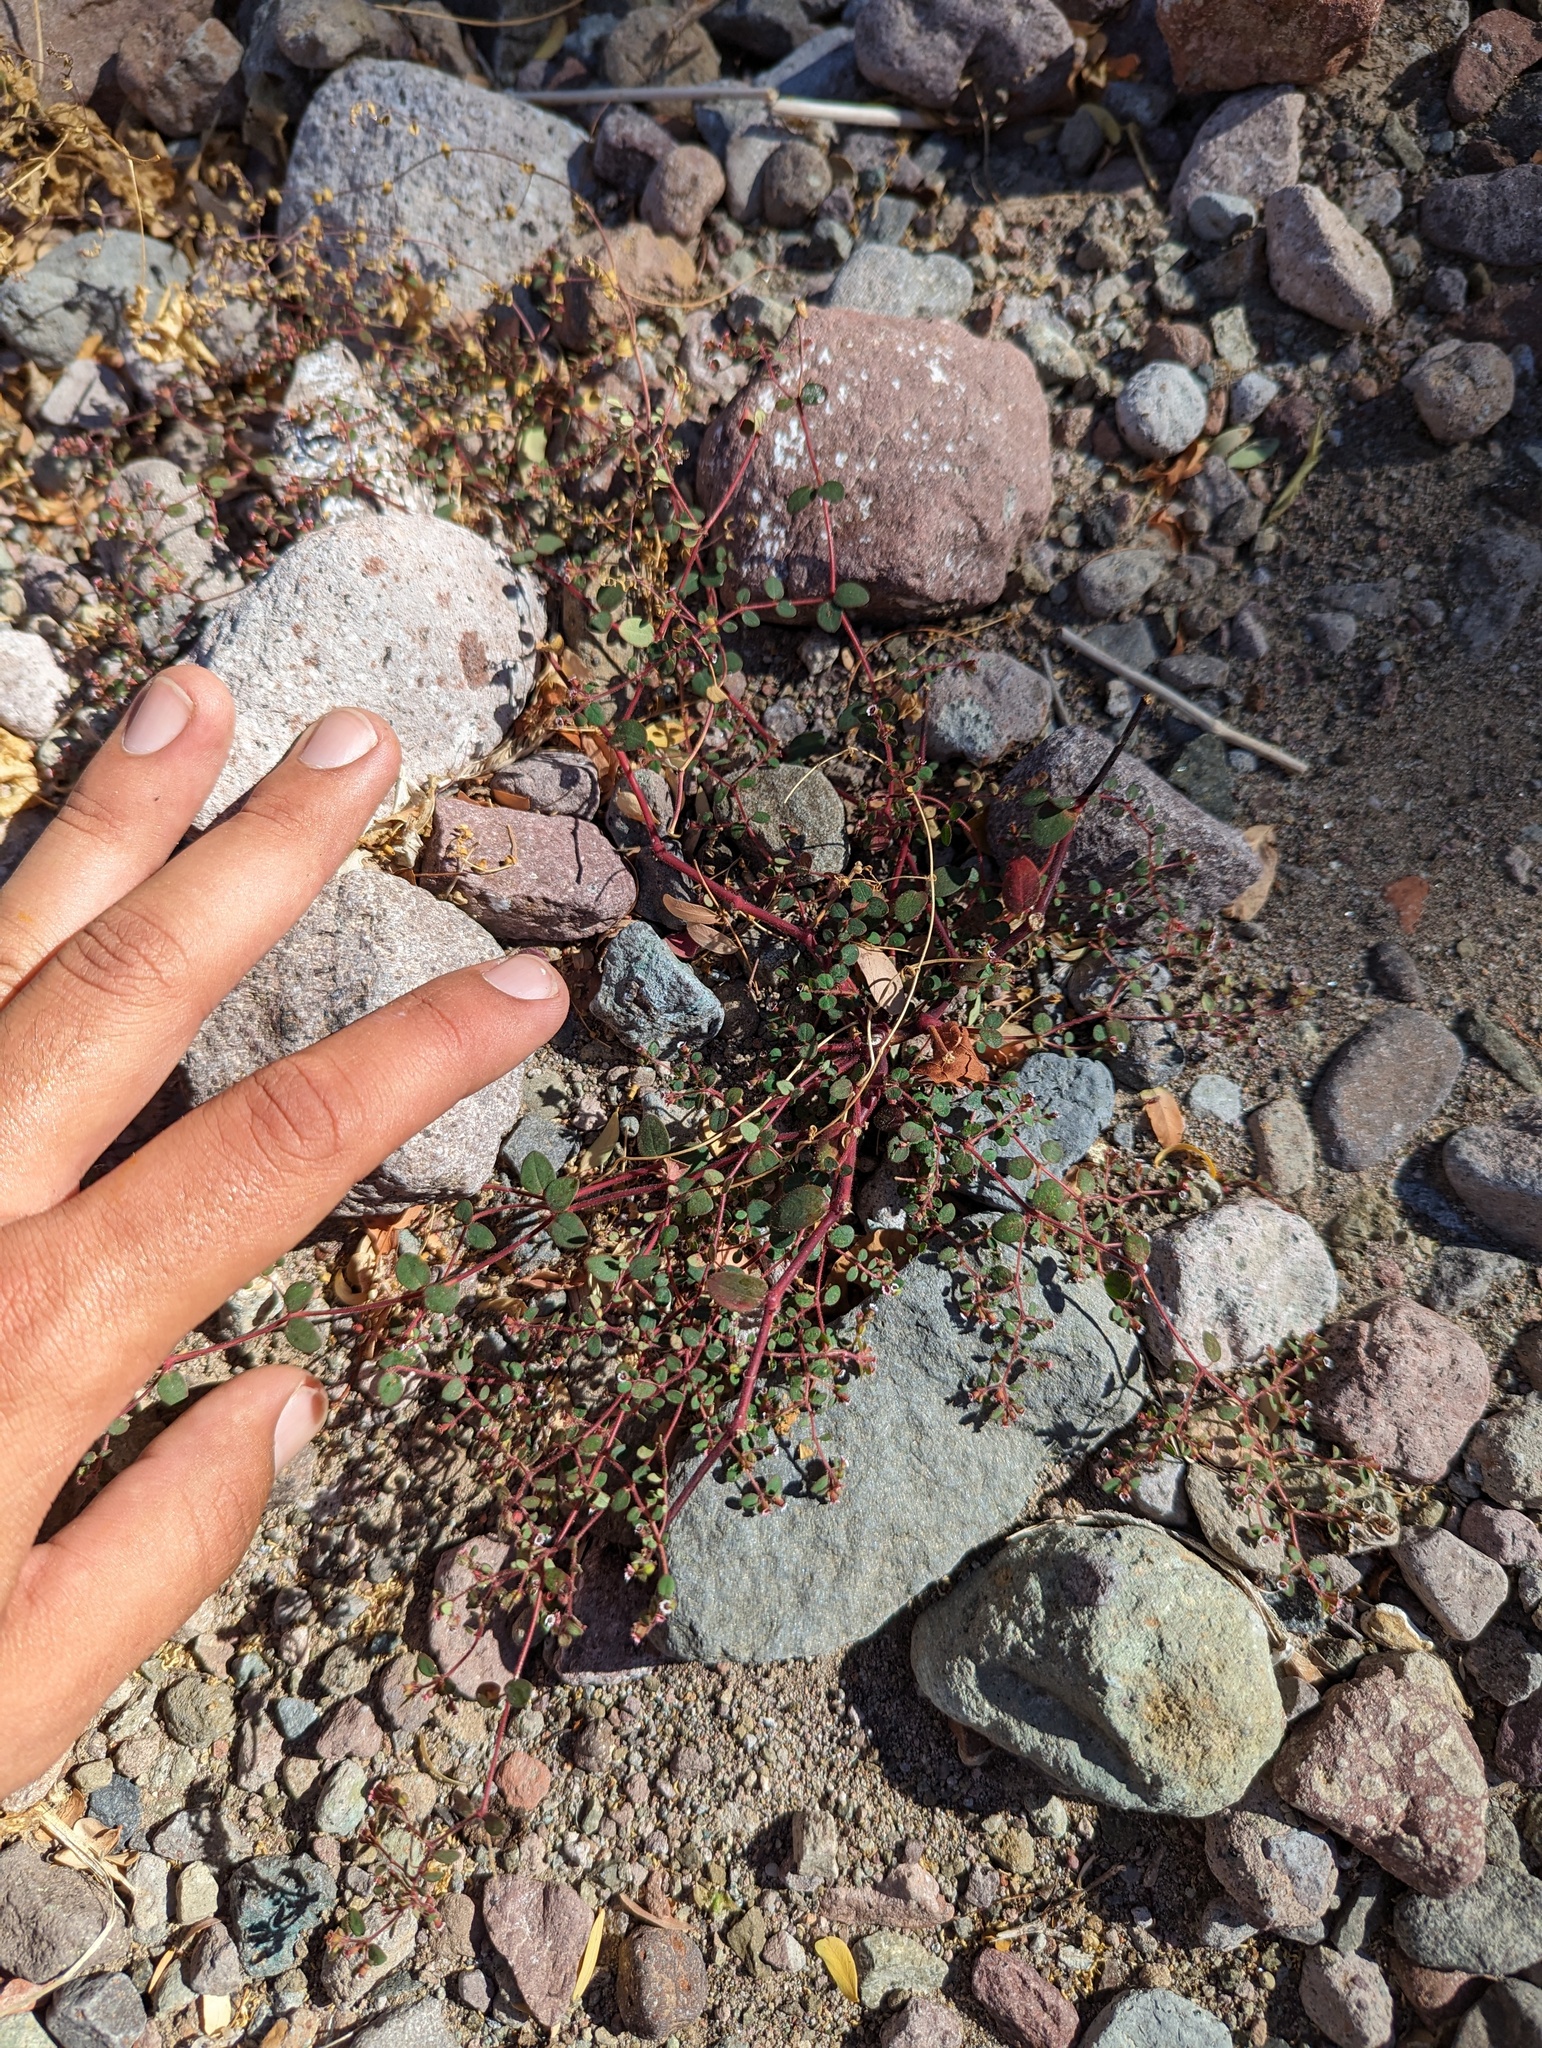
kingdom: Plantae
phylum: Tracheophyta
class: Magnoliopsida
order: Malpighiales
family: Euphorbiaceae
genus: Euphorbia
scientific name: Euphorbia arizonica
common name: Arizona spurge
